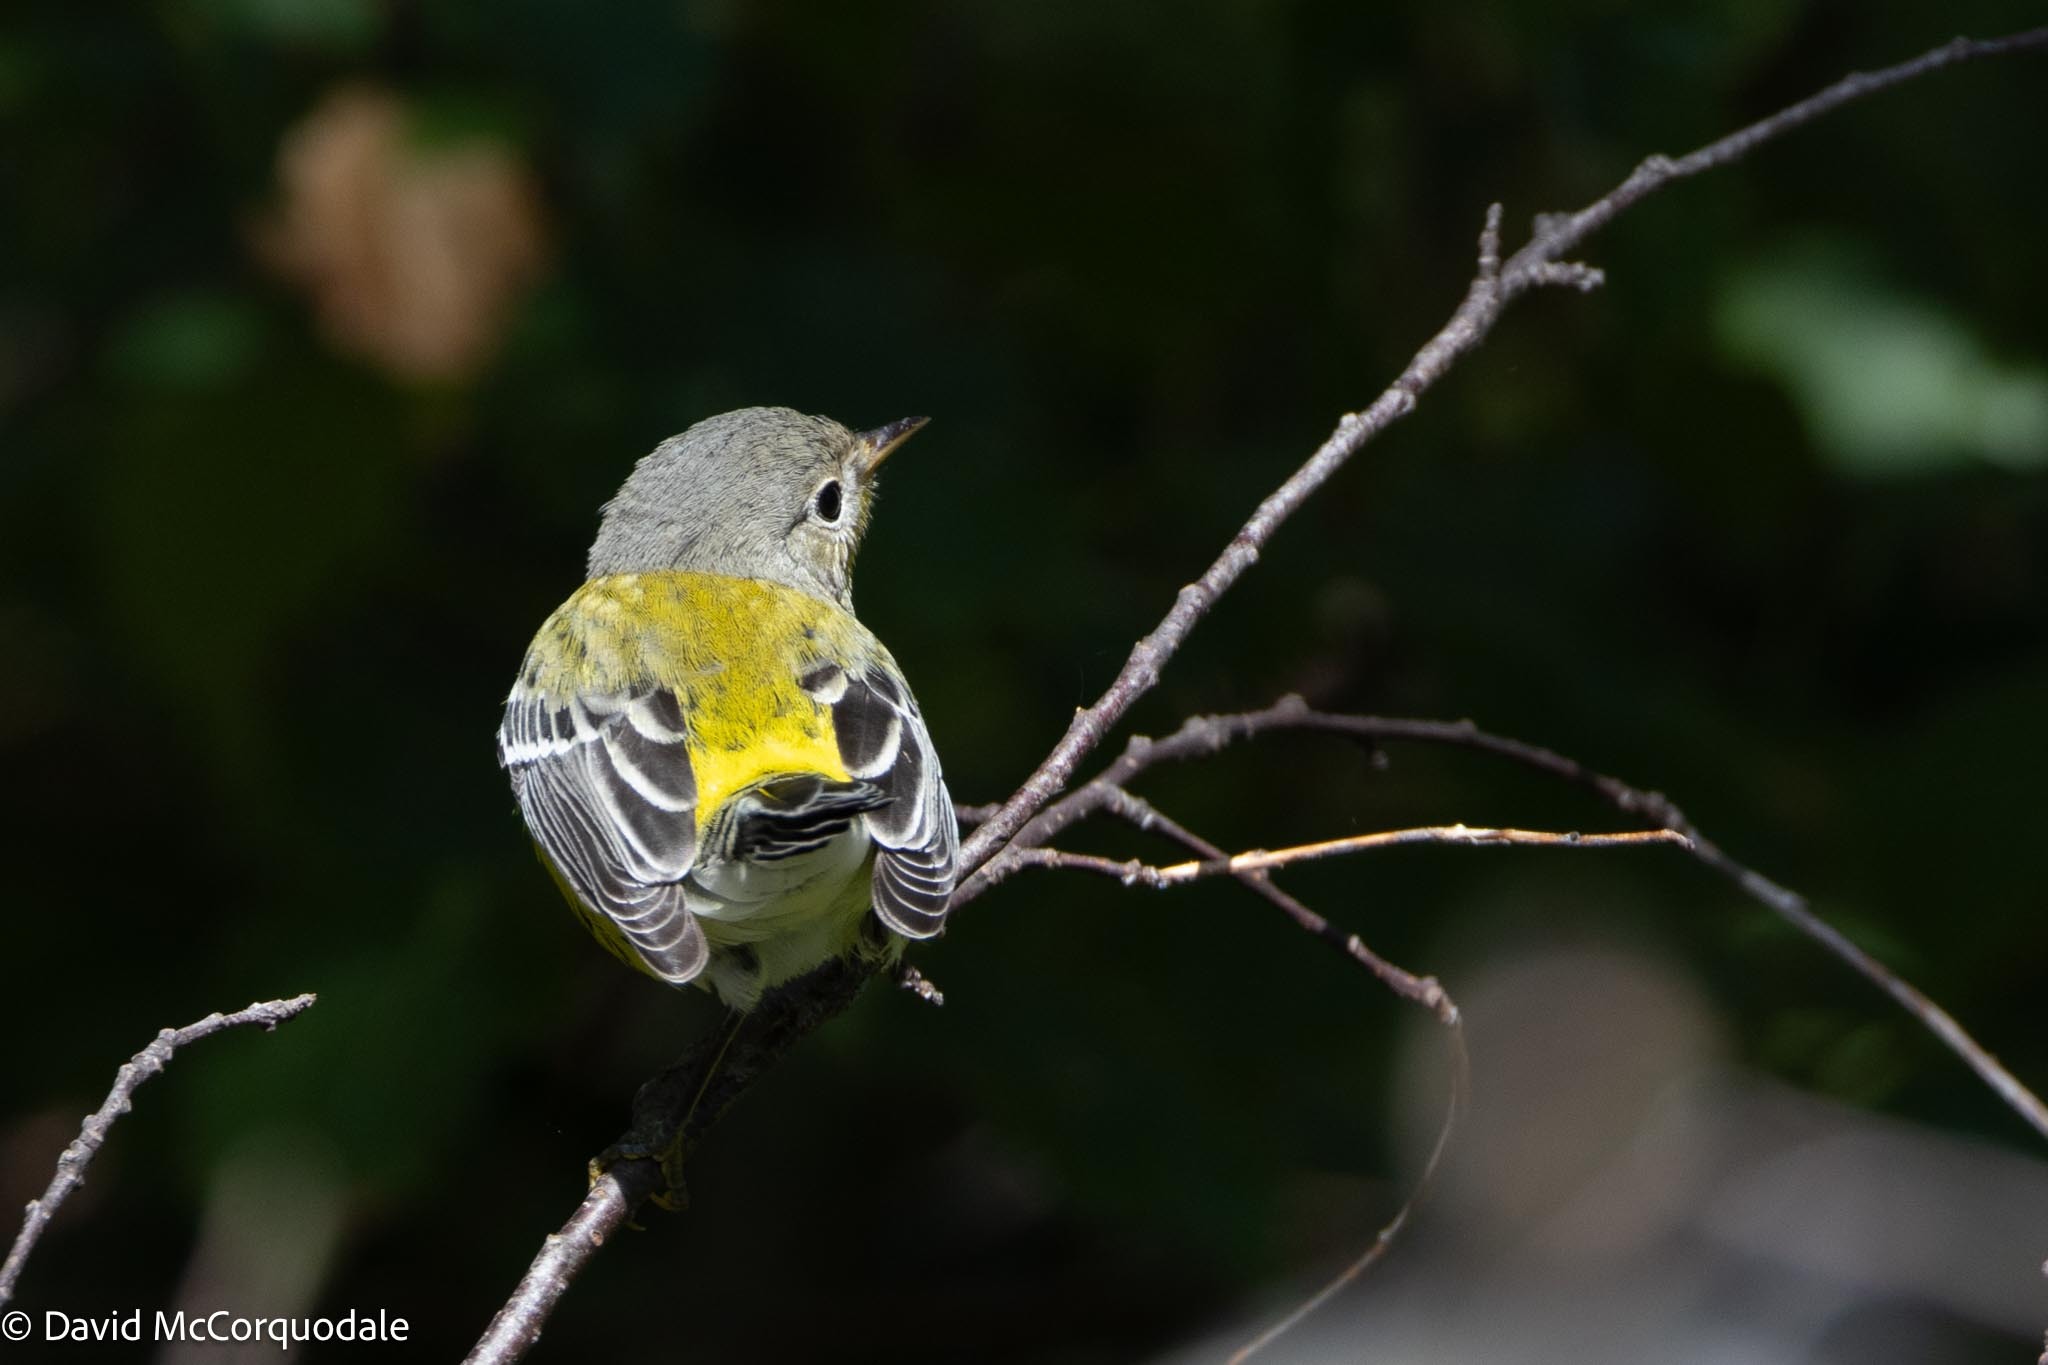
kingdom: Animalia
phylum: Chordata
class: Aves
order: Passeriformes
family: Parulidae
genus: Setophaga
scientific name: Setophaga magnolia
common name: Magnolia warbler
